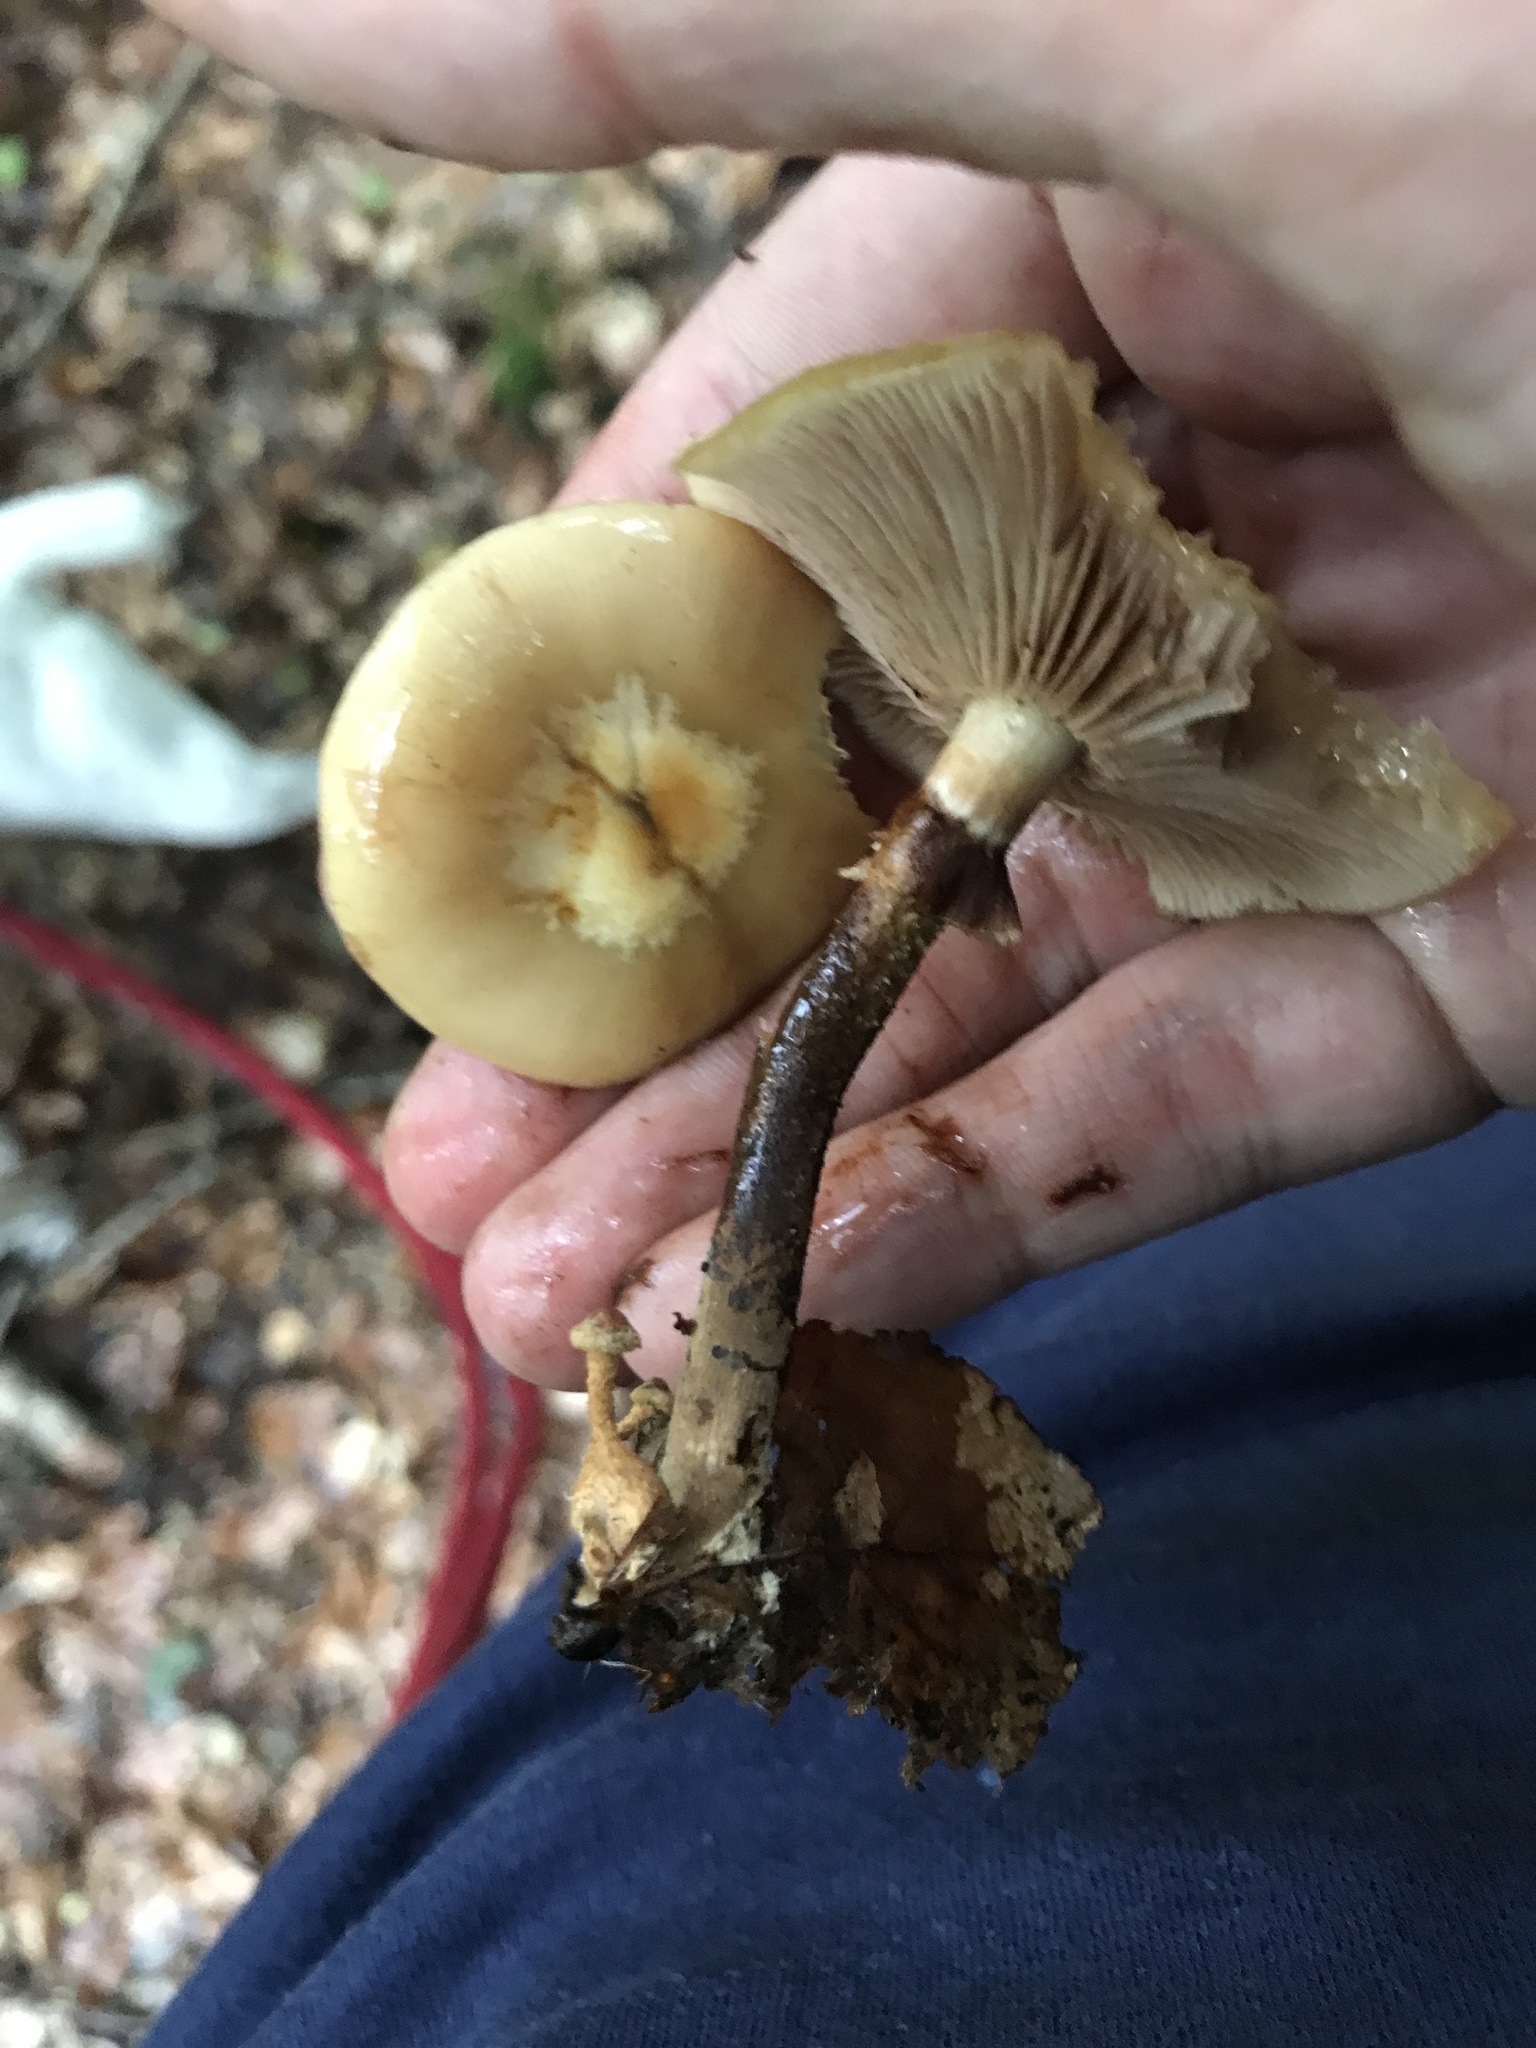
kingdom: Fungi
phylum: Basidiomycota
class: Agaricomycetes
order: Agaricales
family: Strophariaceae
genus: Kuehneromyces
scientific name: Kuehneromyces mutabilis
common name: Sheathed woodtuft
